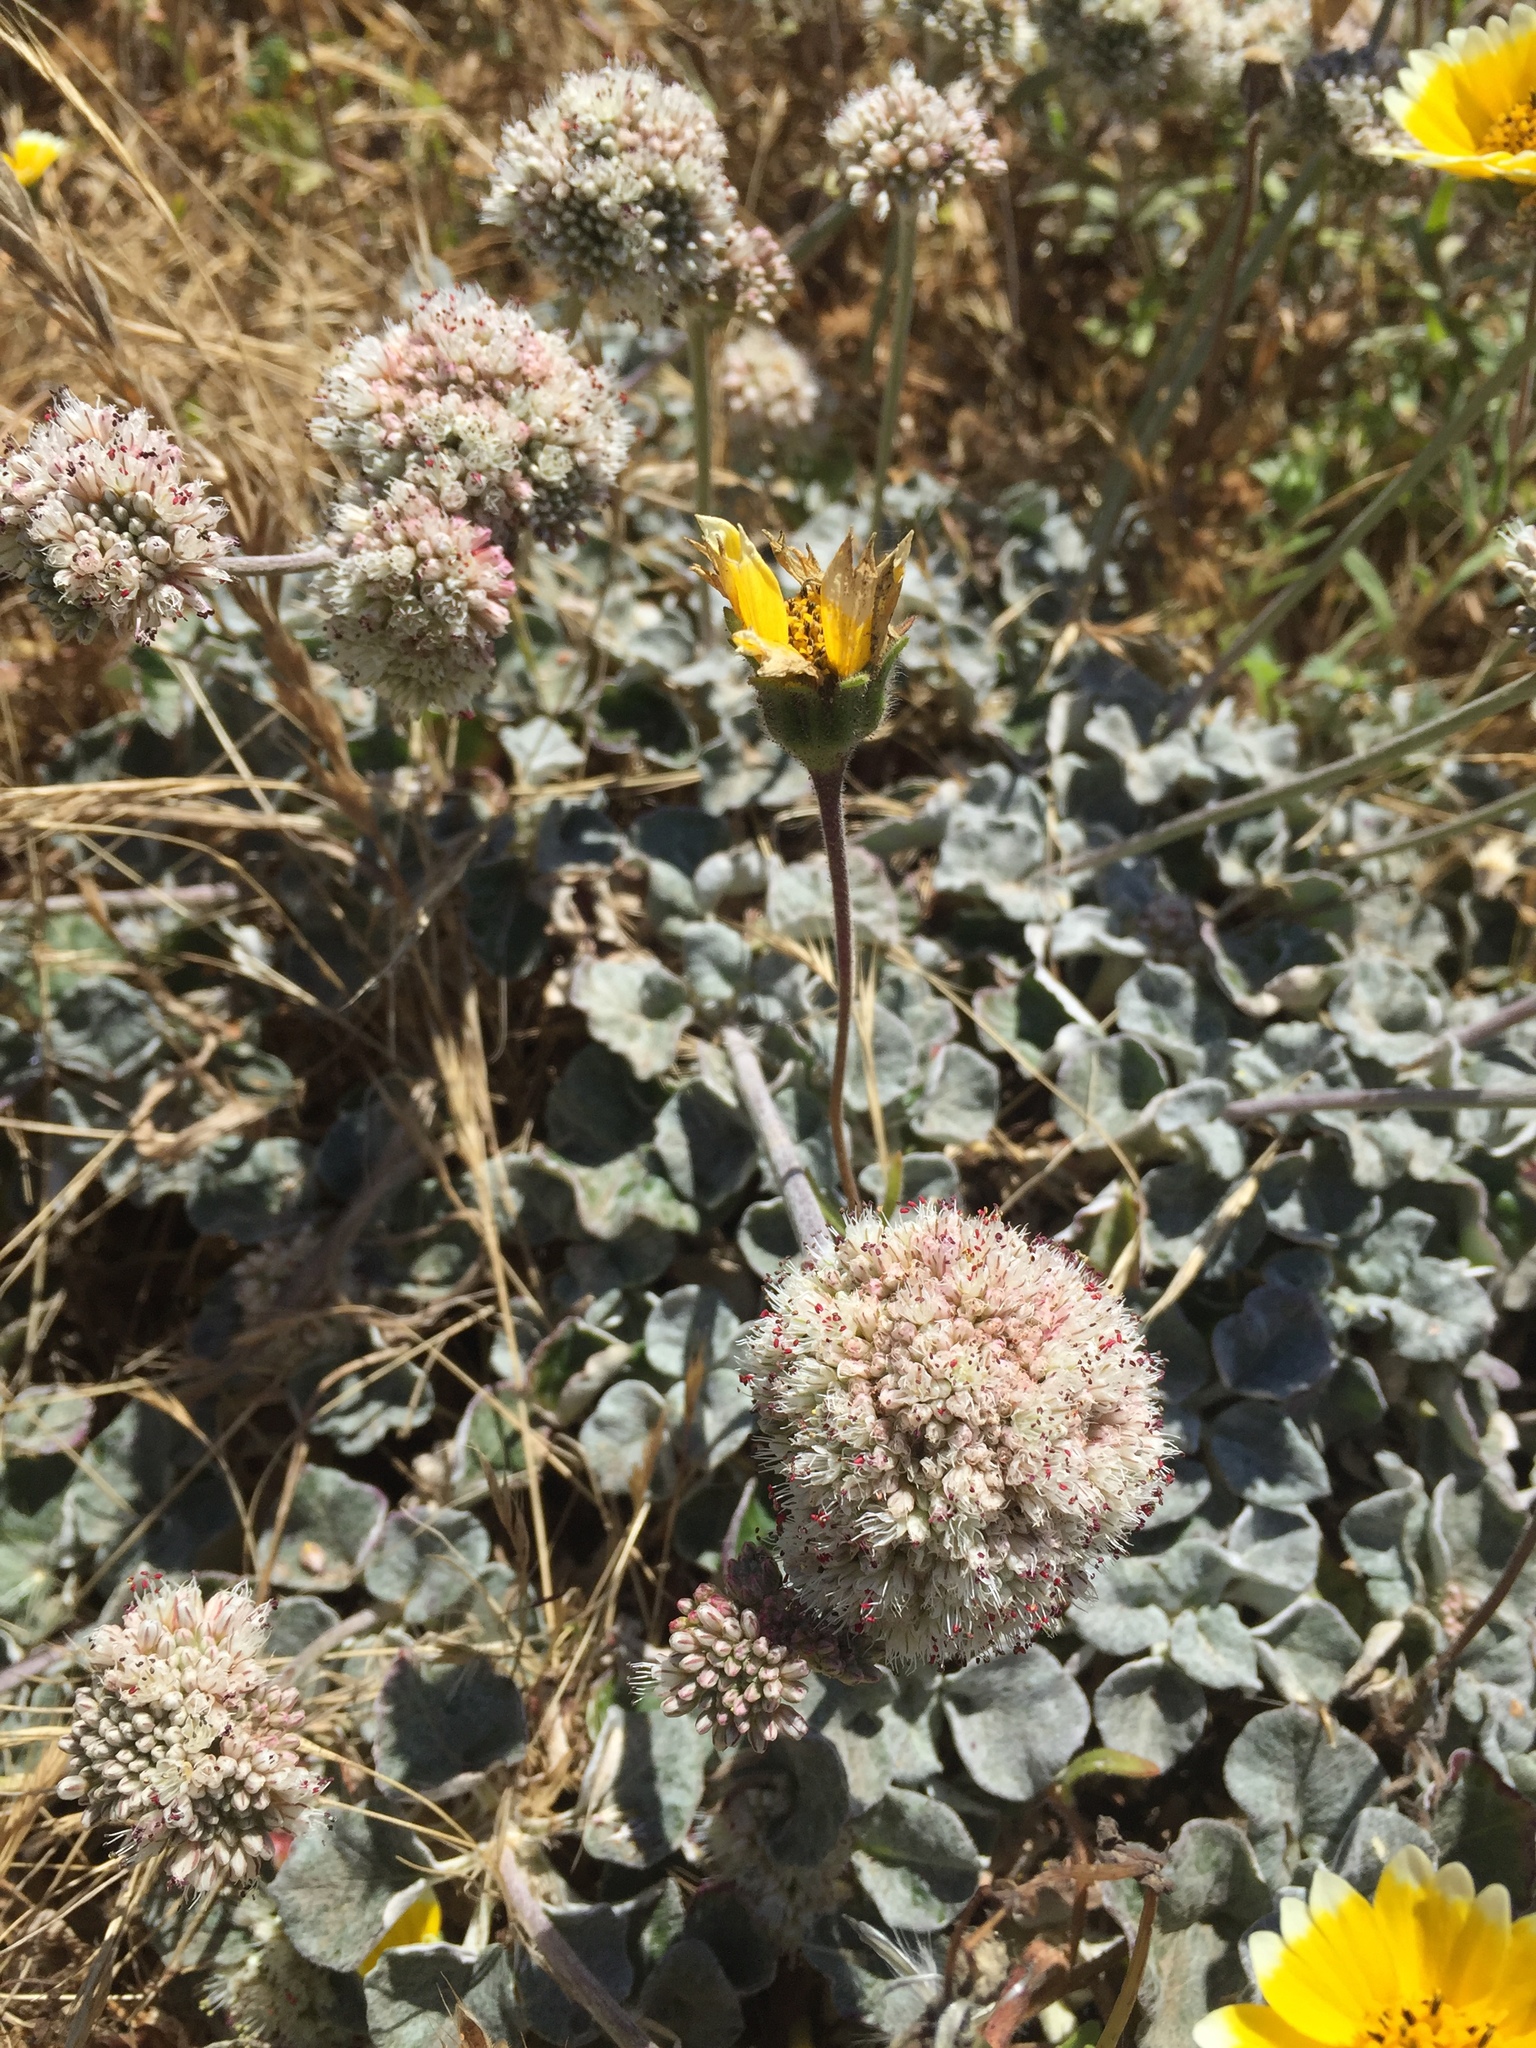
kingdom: Plantae
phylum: Tracheophyta
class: Magnoliopsida
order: Caryophyllales
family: Polygonaceae
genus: Eriogonum
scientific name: Eriogonum latifolium
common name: Seaside wild buckwheat
